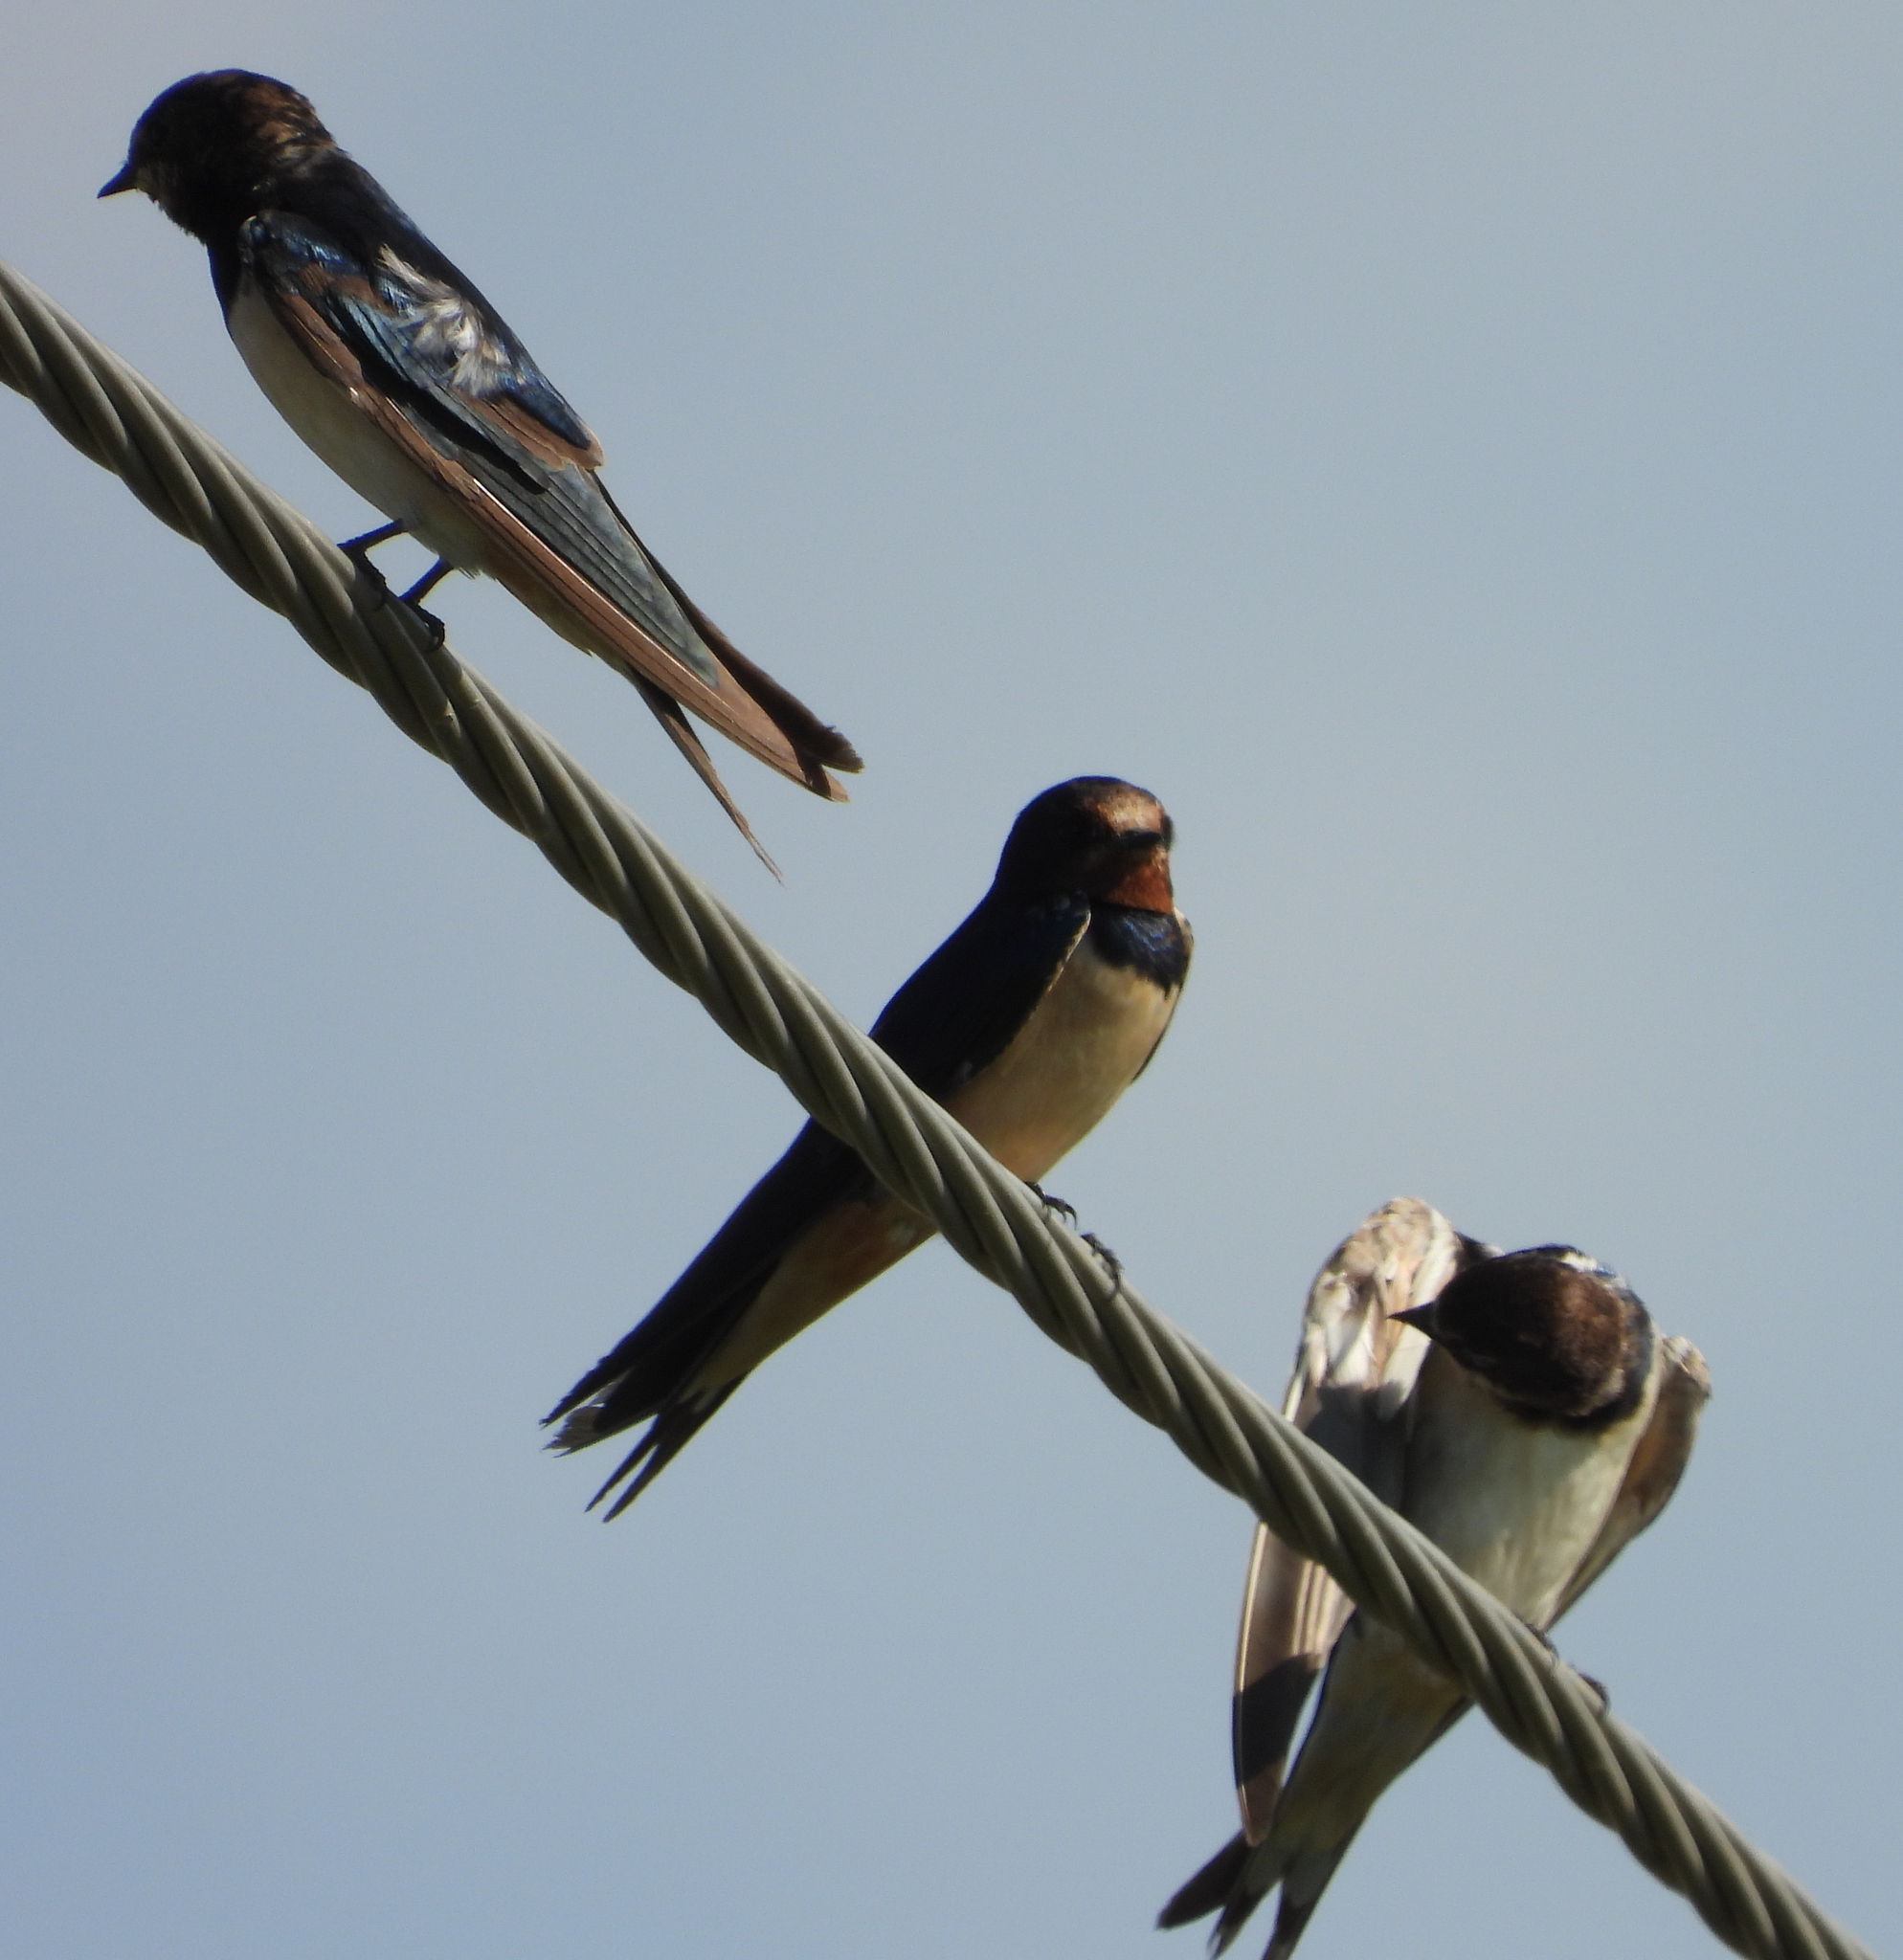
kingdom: Animalia
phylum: Chordata
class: Aves
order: Passeriformes
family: Hirundinidae
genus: Hirundo
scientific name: Hirundo rustica
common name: Barn swallow
